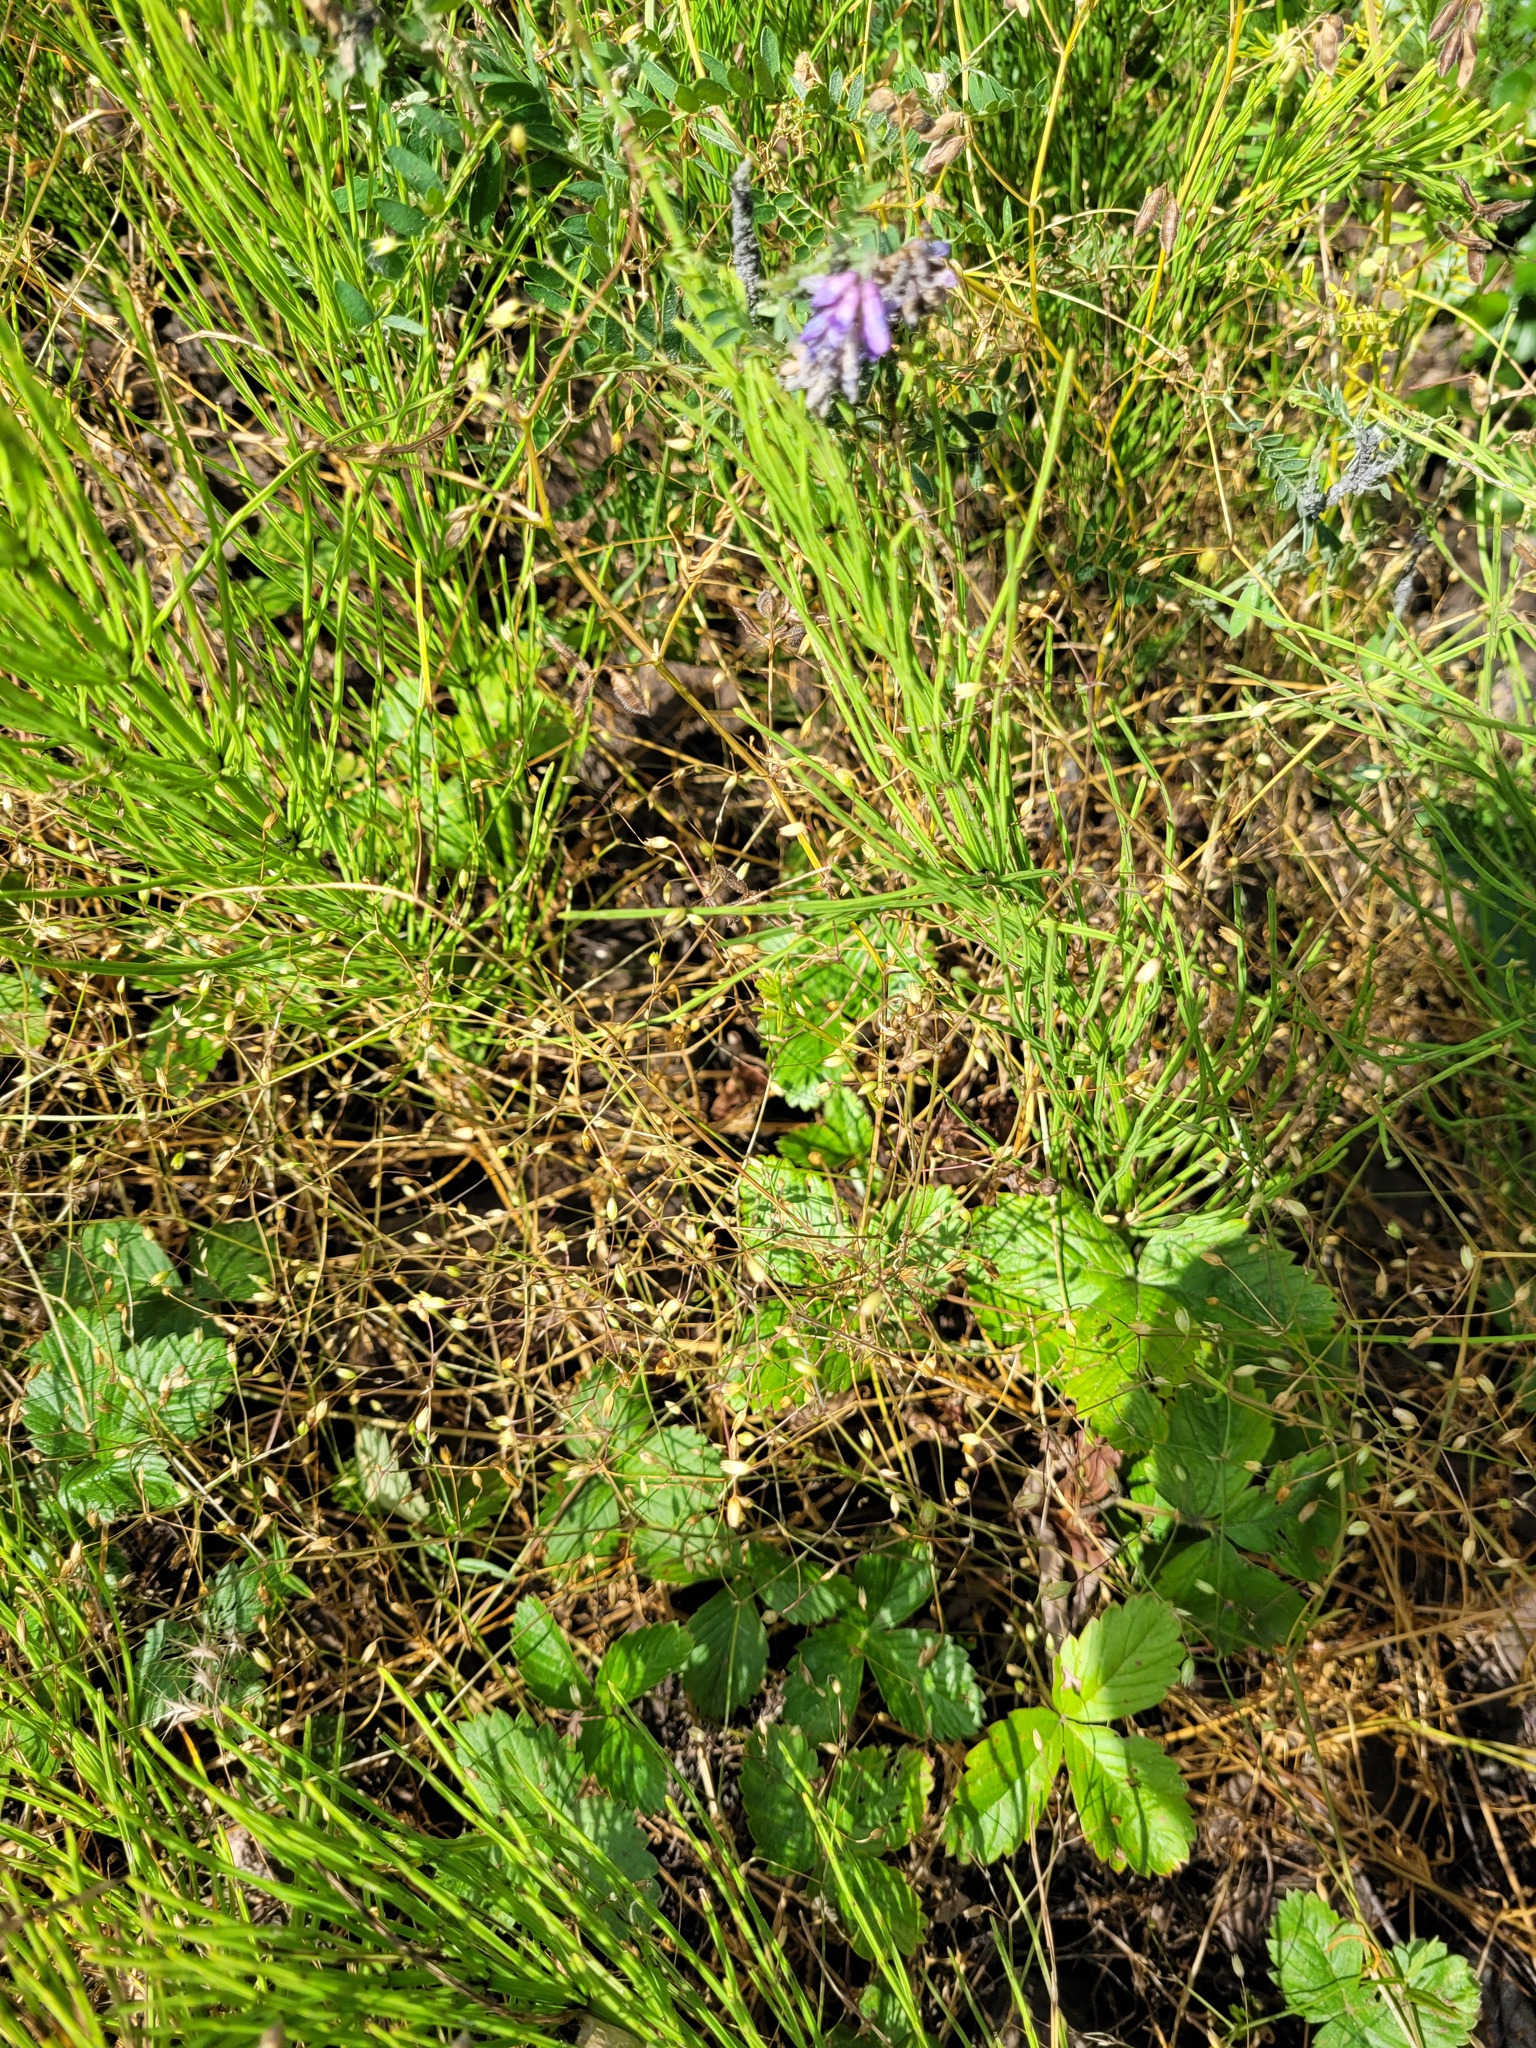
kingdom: Plantae
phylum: Tracheophyta
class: Magnoliopsida
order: Caryophyllales
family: Caryophyllaceae
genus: Stellaria
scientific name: Stellaria graminea
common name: Grass-like starwort
